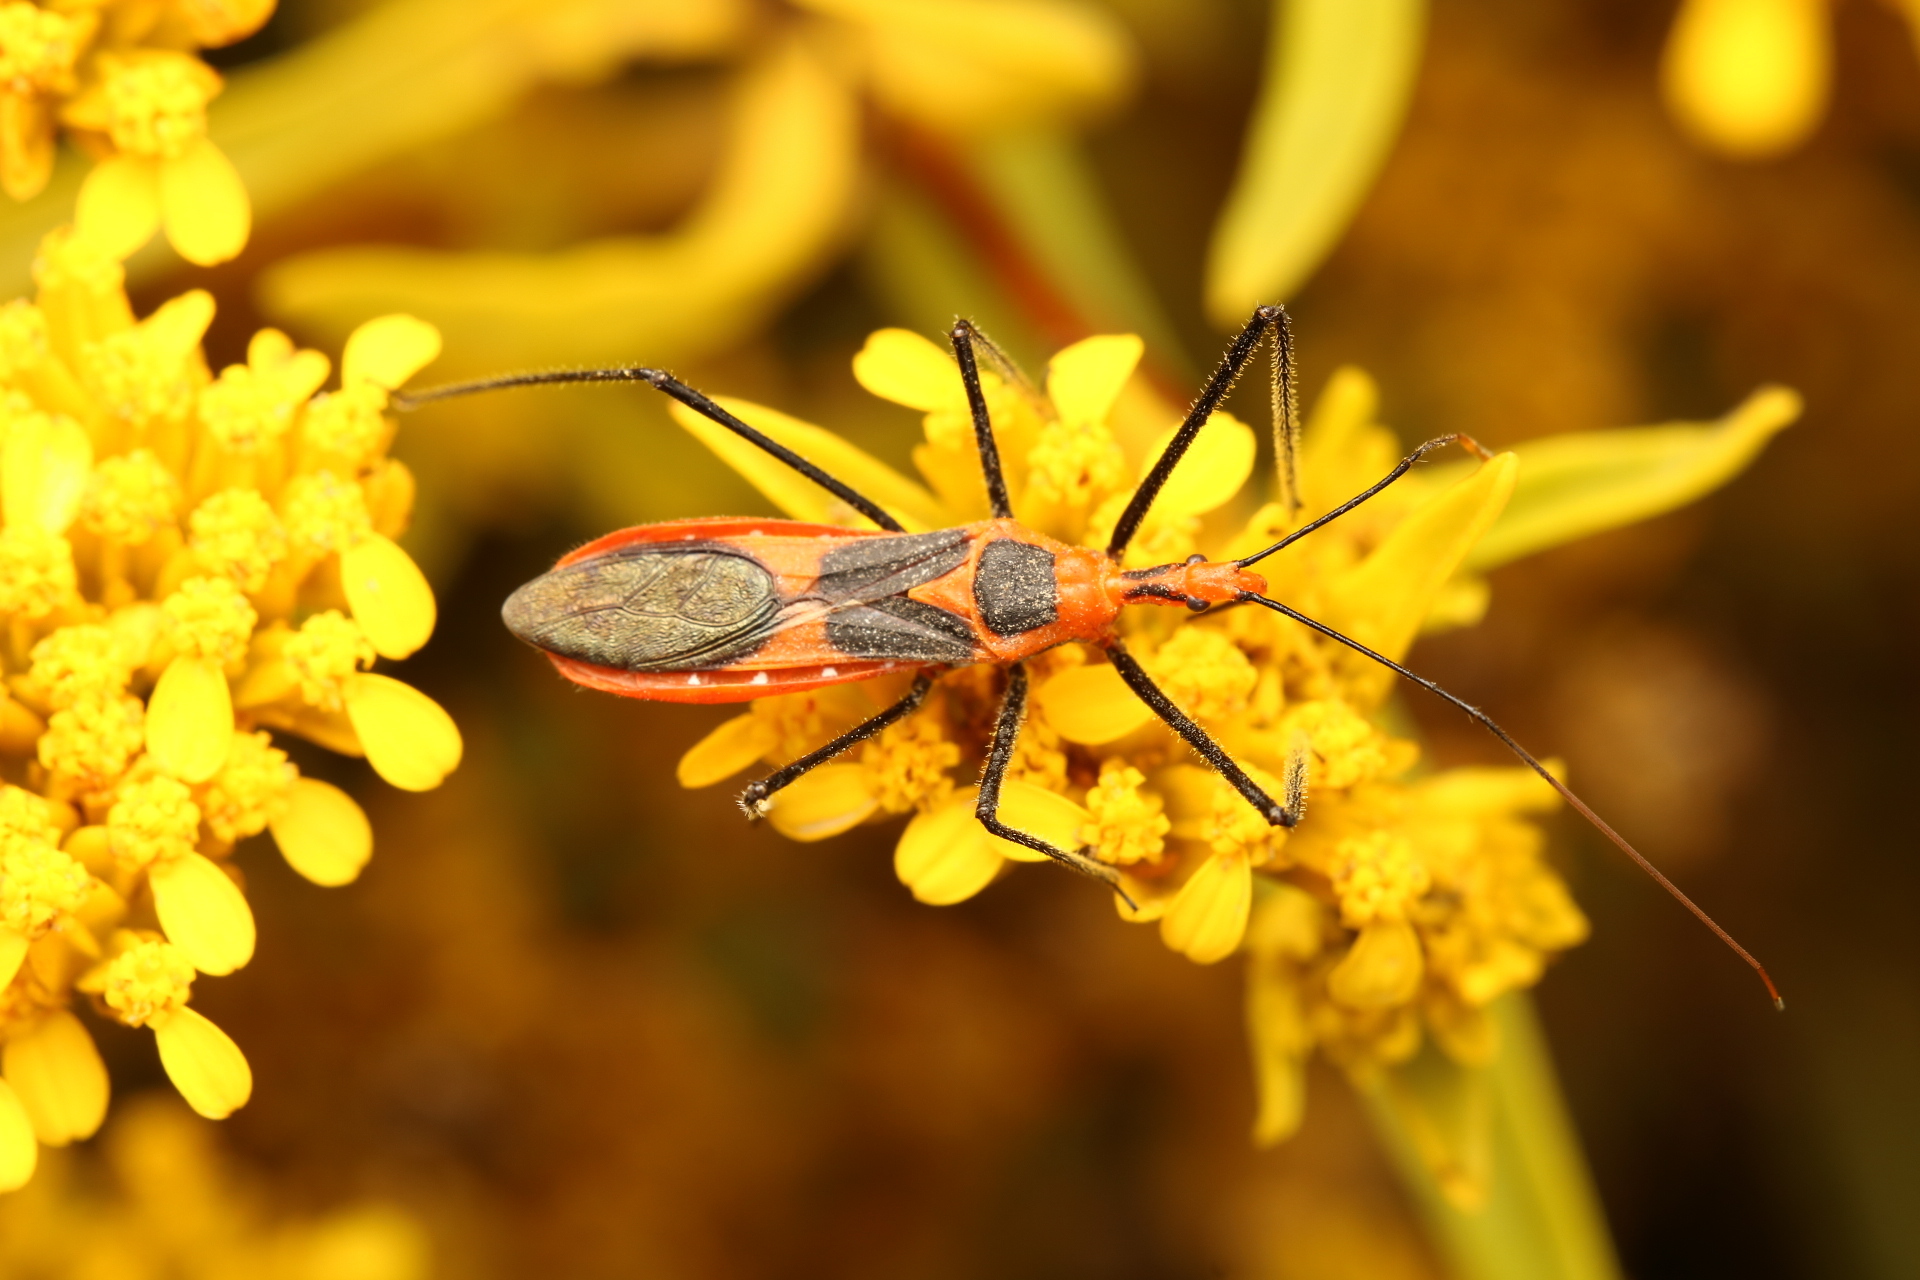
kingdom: Animalia
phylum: Arthropoda
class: Insecta
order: Hemiptera
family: Reduviidae
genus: Zelus
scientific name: Zelus longipes
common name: Milkweed assassin bug
